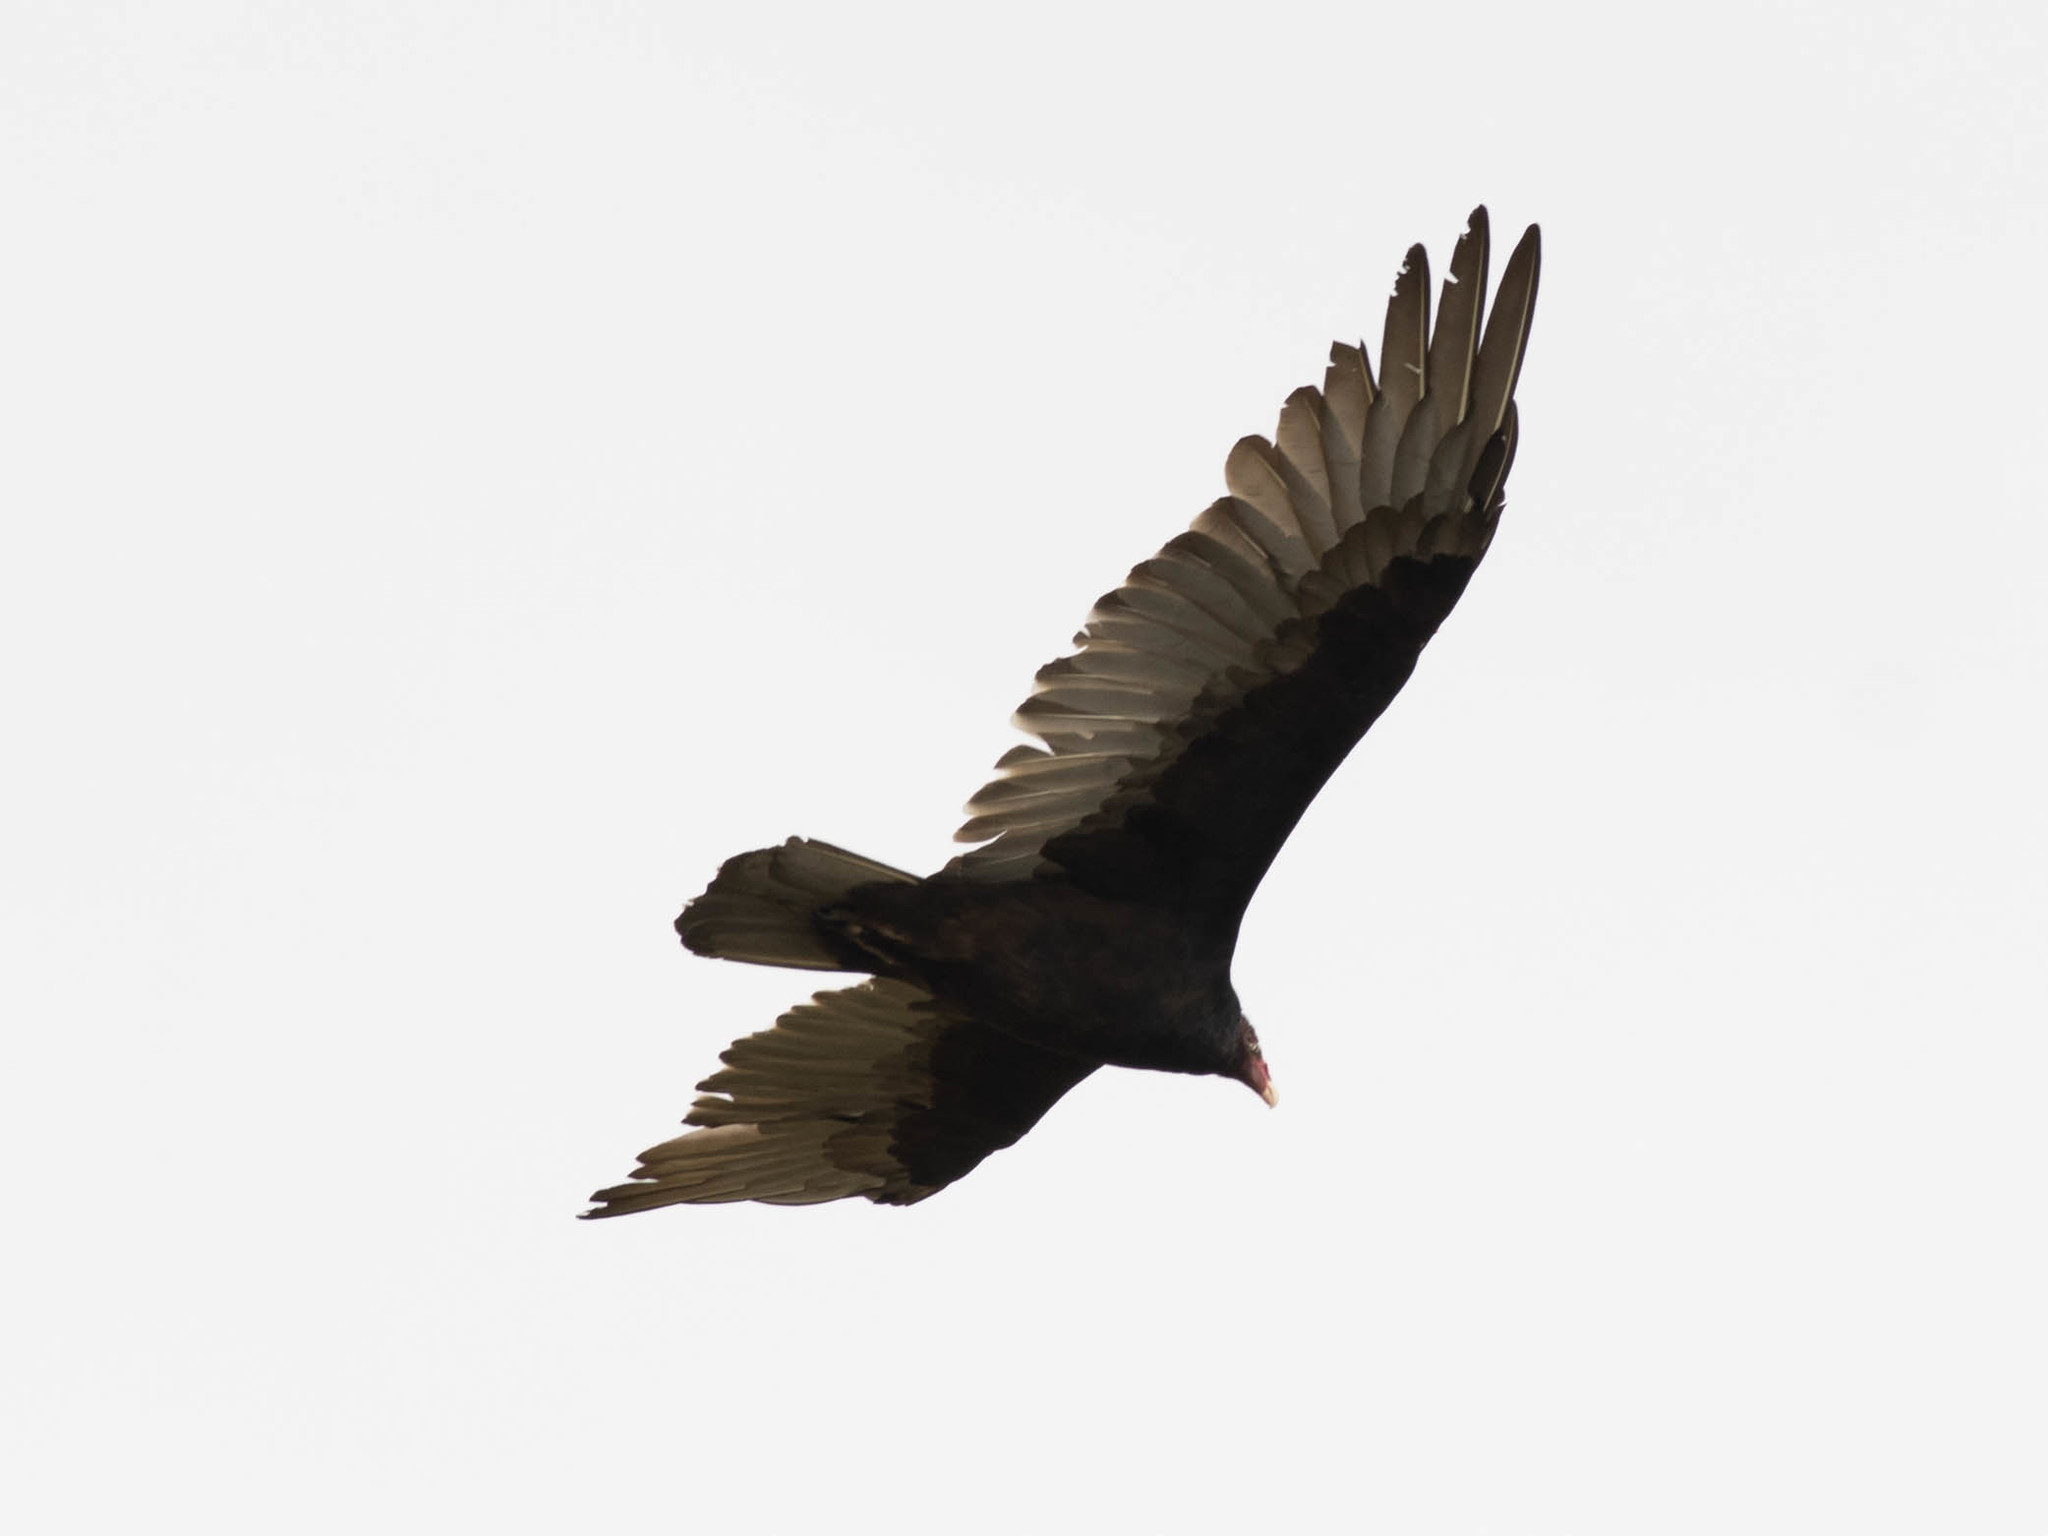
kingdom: Animalia
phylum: Chordata
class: Aves
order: Accipitriformes
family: Cathartidae
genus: Cathartes
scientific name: Cathartes aura
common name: Turkey vulture
